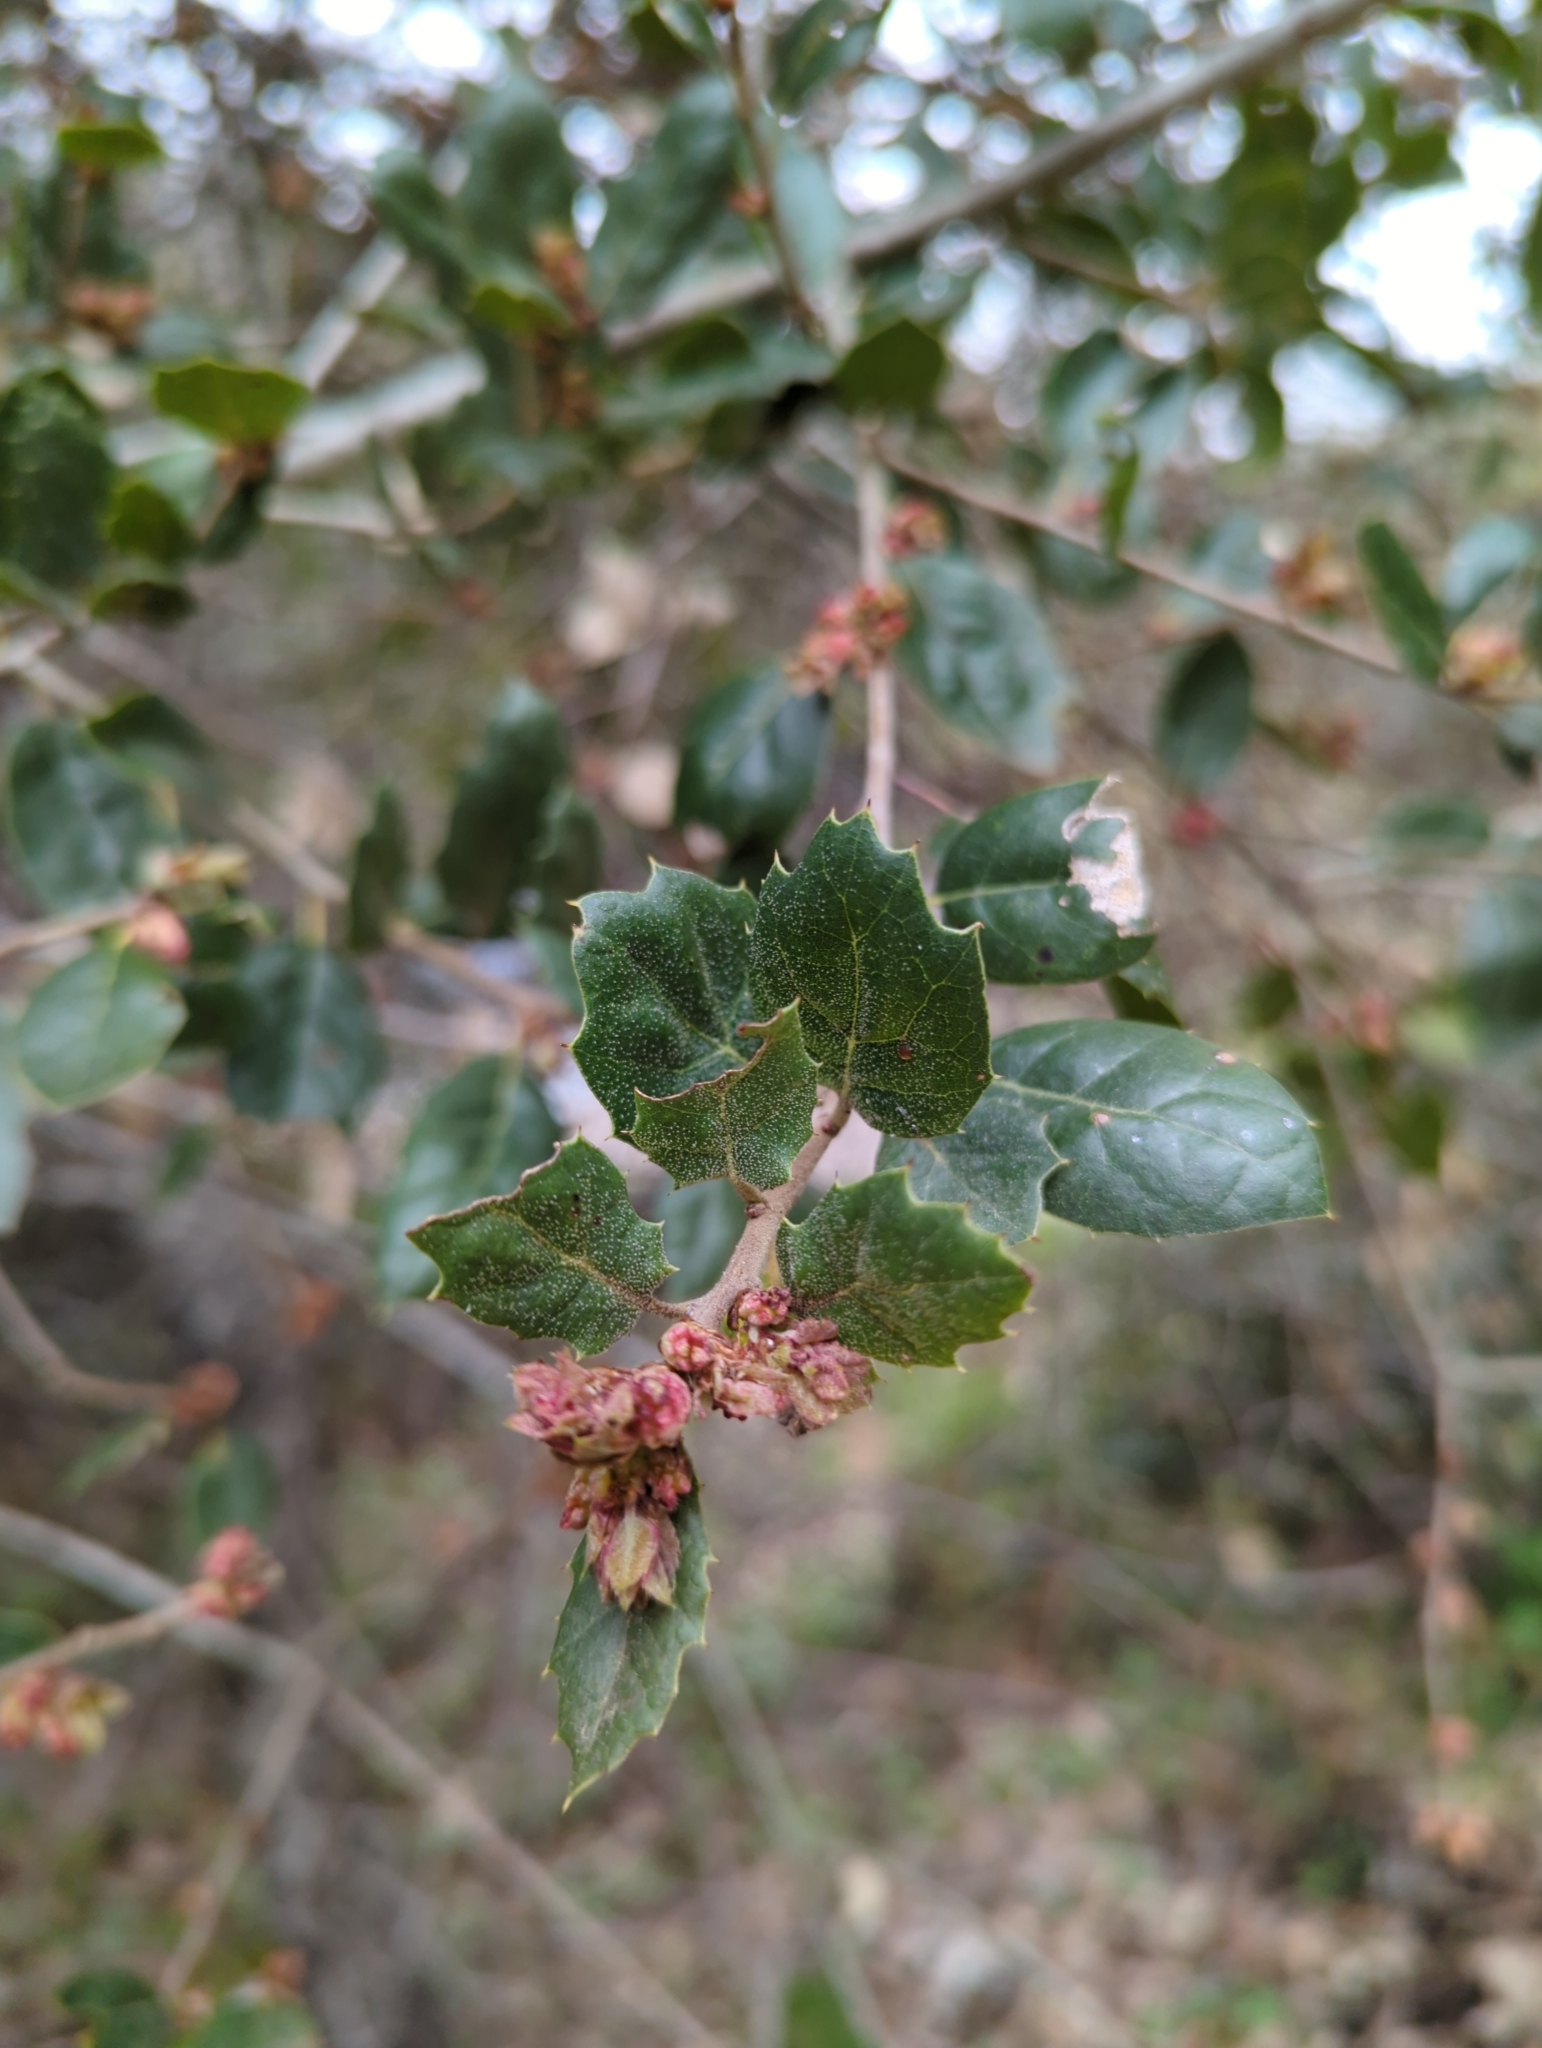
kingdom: Plantae
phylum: Tracheophyta
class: Magnoliopsida
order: Fagales
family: Fagaceae
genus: Quercus
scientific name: Quercus agrifolia
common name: California live oak
